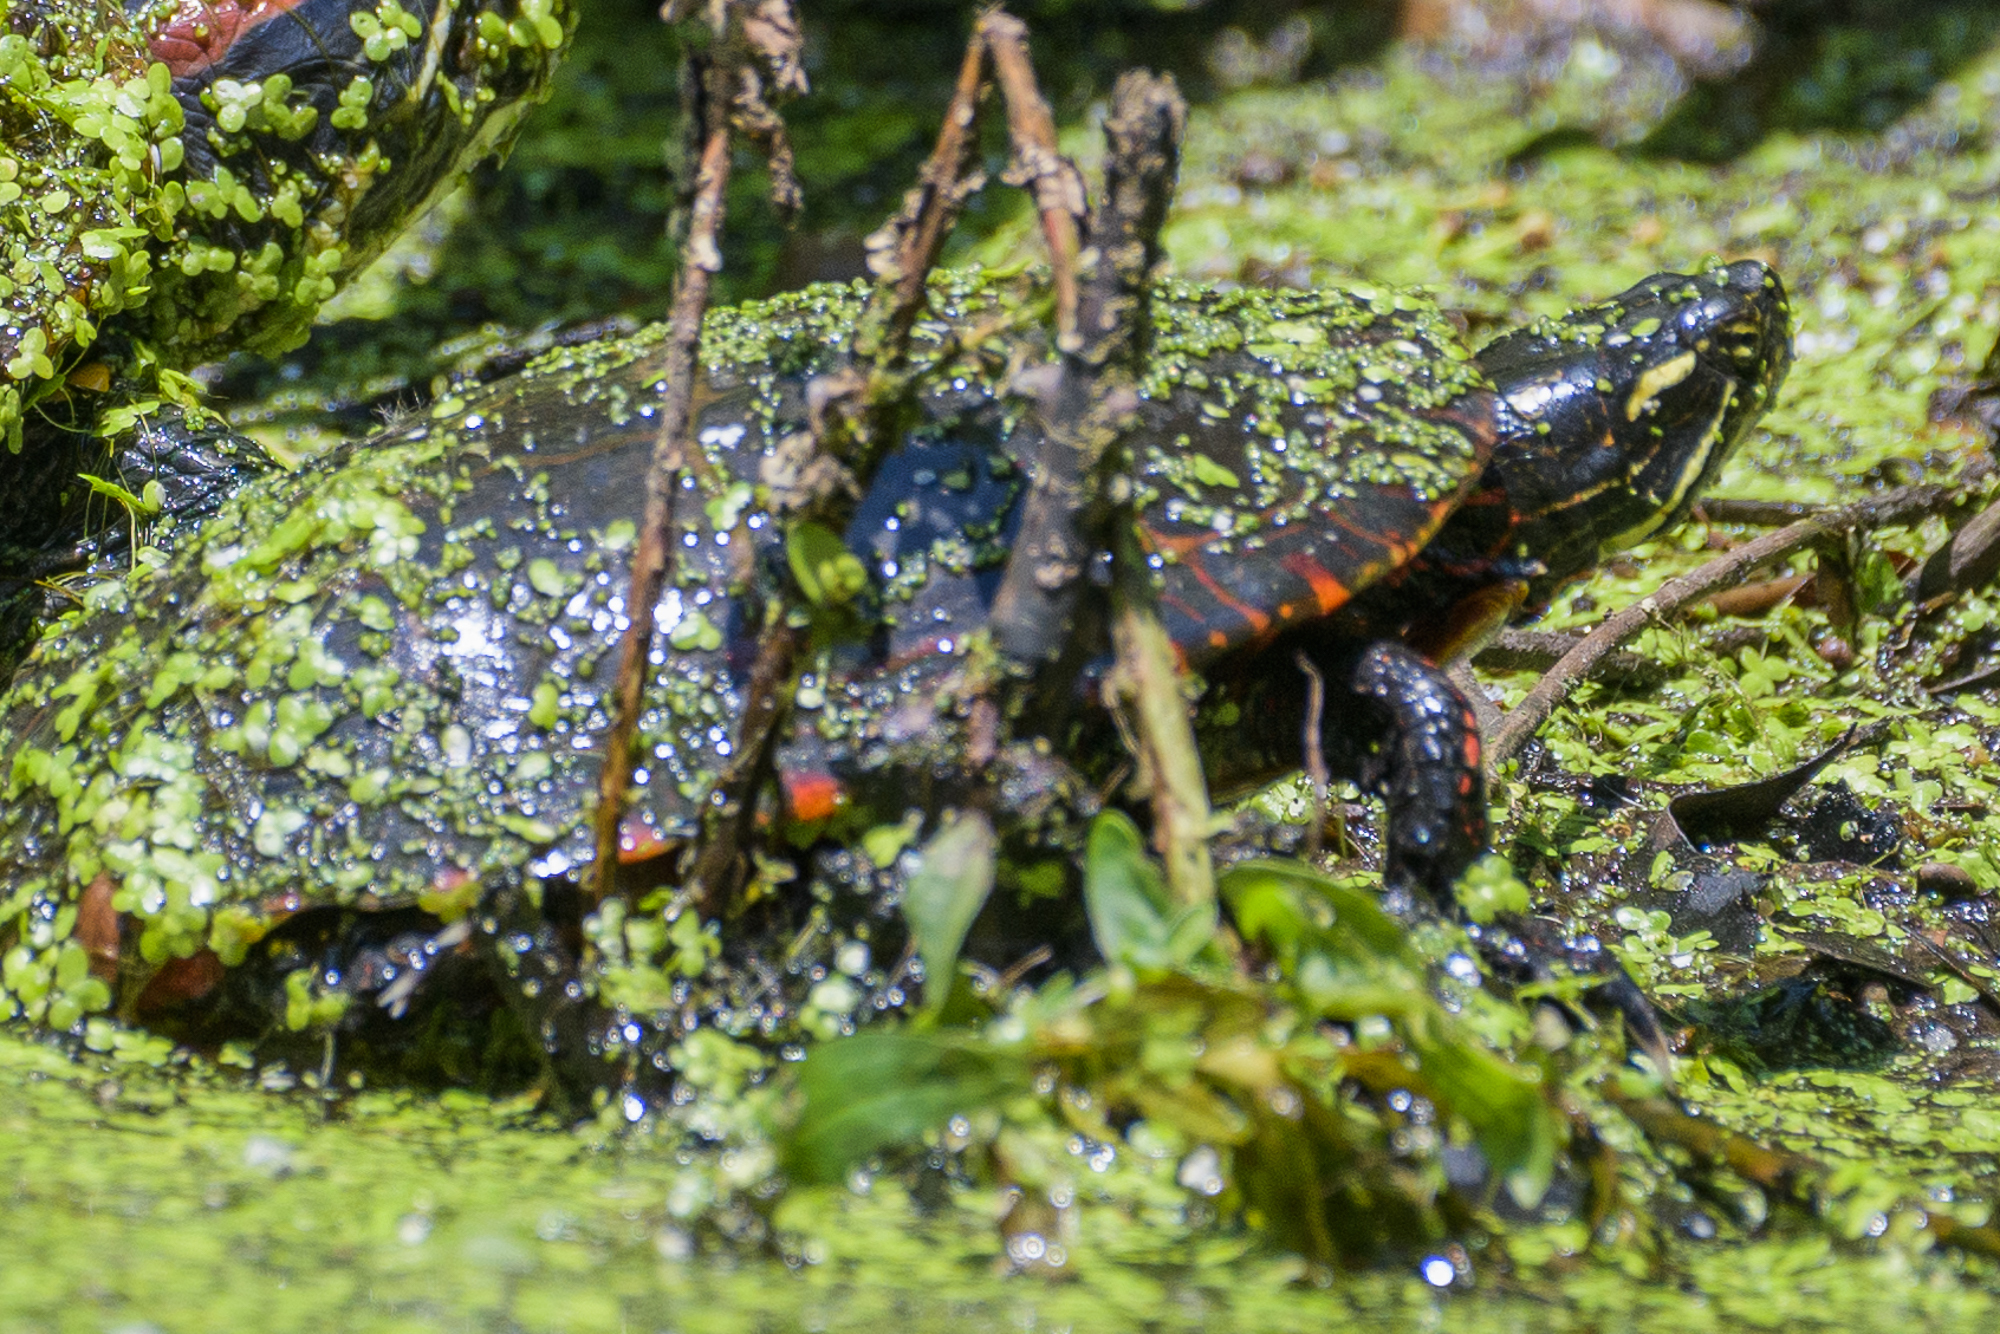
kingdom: Animalia
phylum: Chordata
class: Testudines
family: Emydidae
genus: Chrysemys
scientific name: Chrysemys picta
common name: Painted turtle
